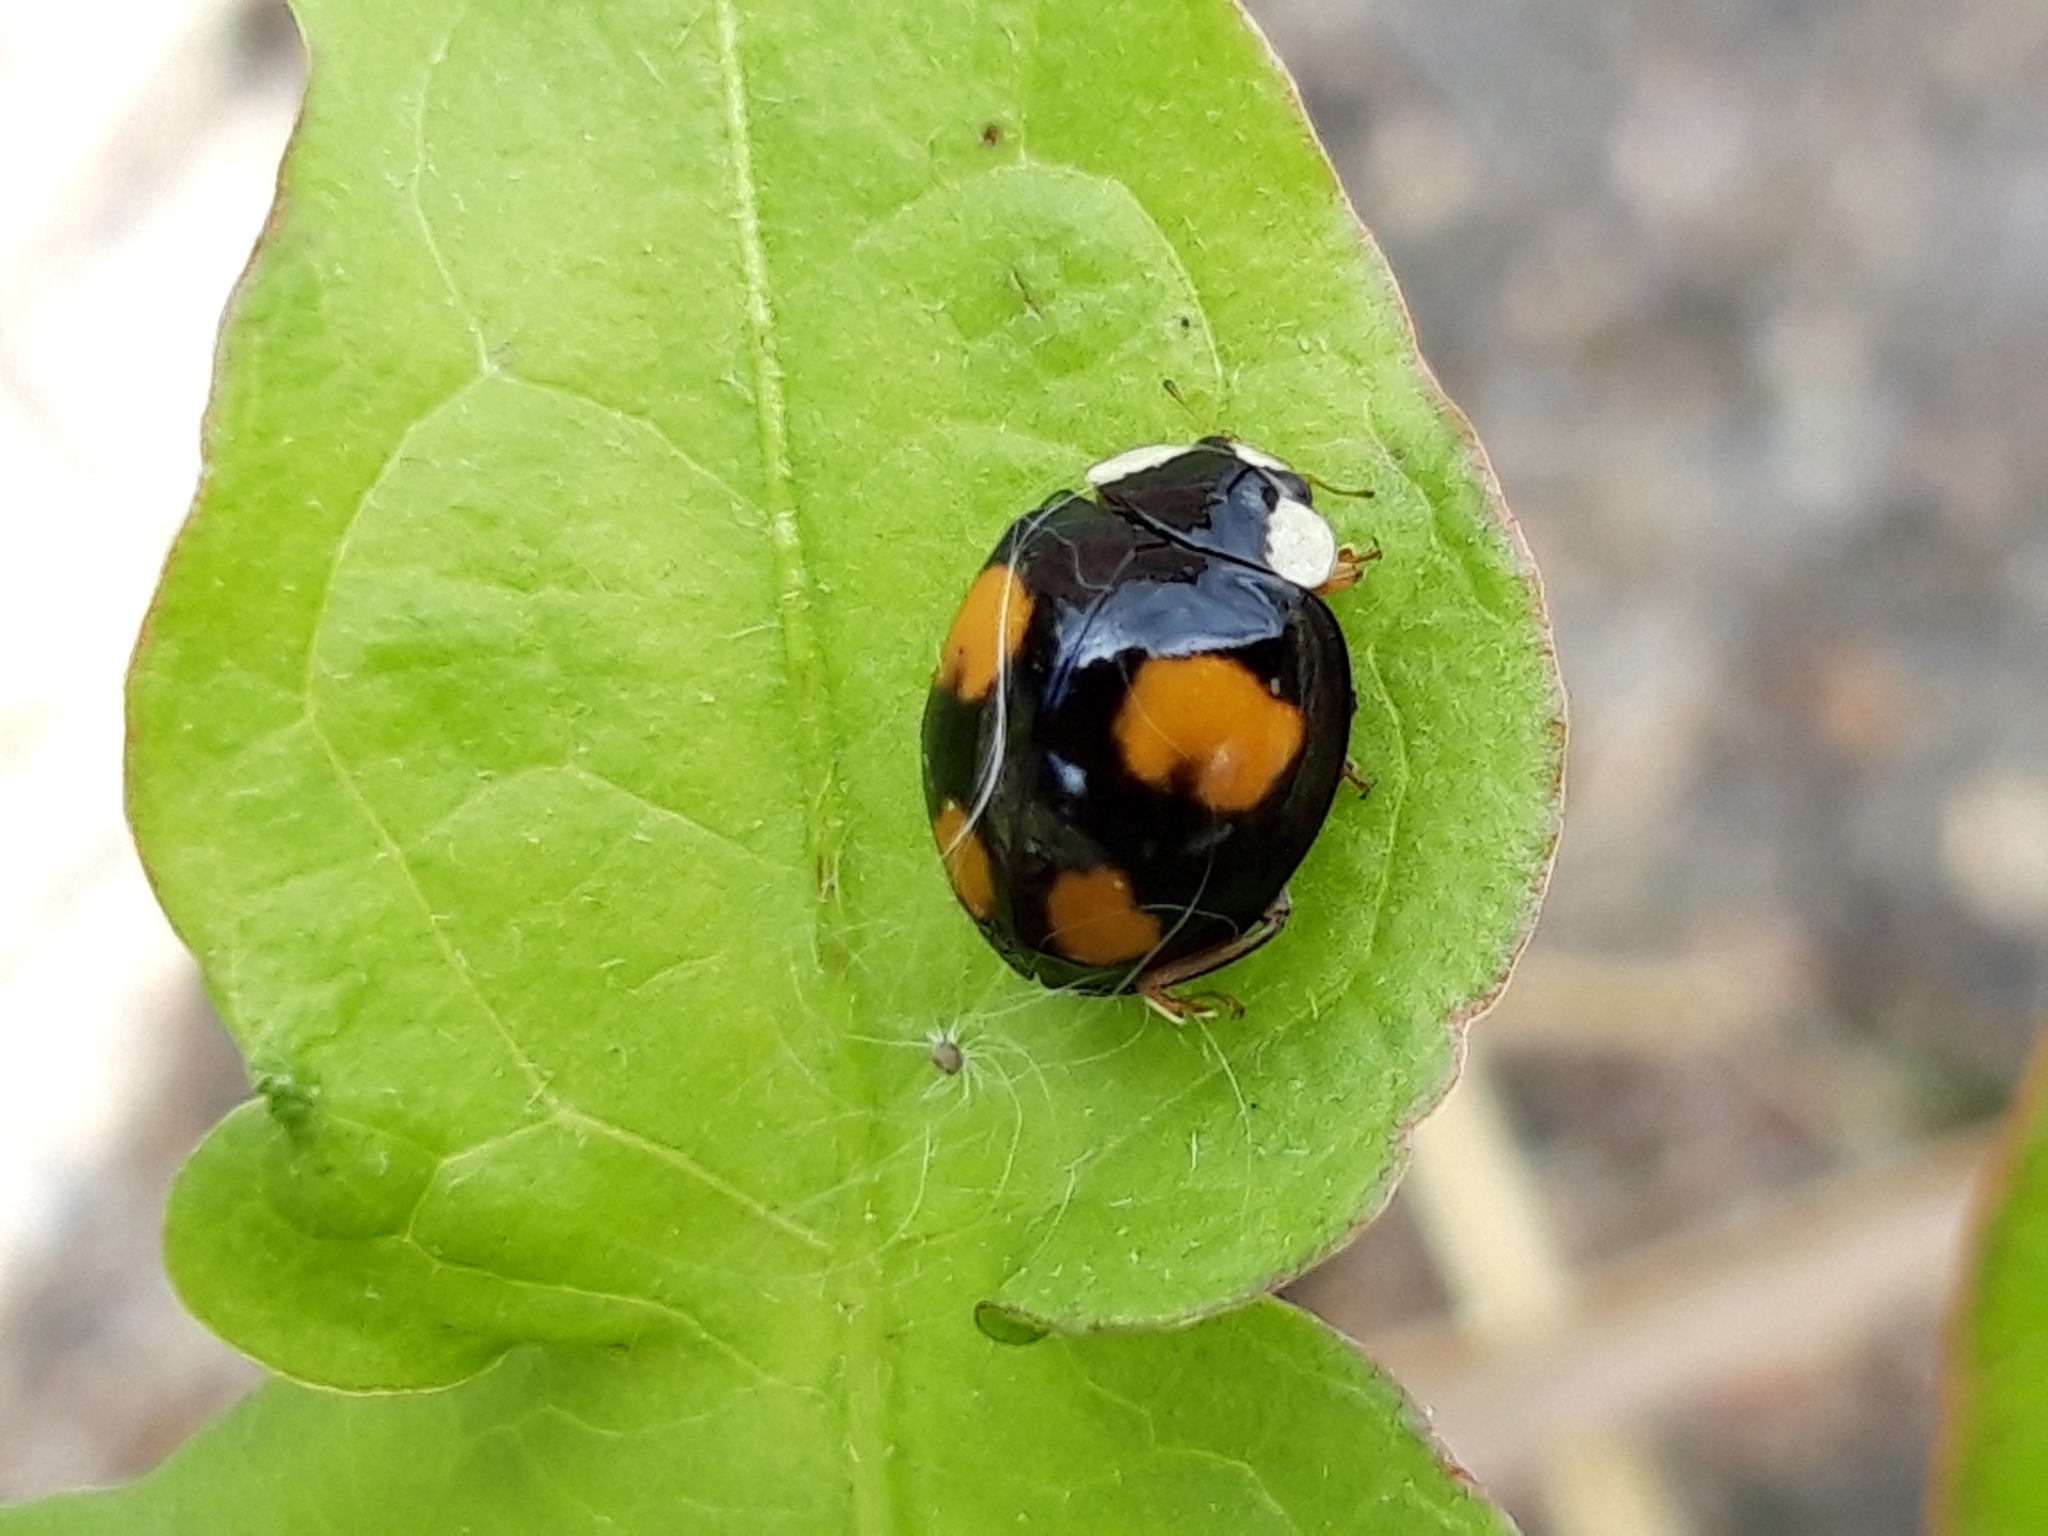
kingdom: Animalia
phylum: Arthropoda
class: Insecta
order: Coleoptera
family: Coccinellidae
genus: Harmonia
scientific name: Harmonia axyridis
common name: Harlequin ladybird
